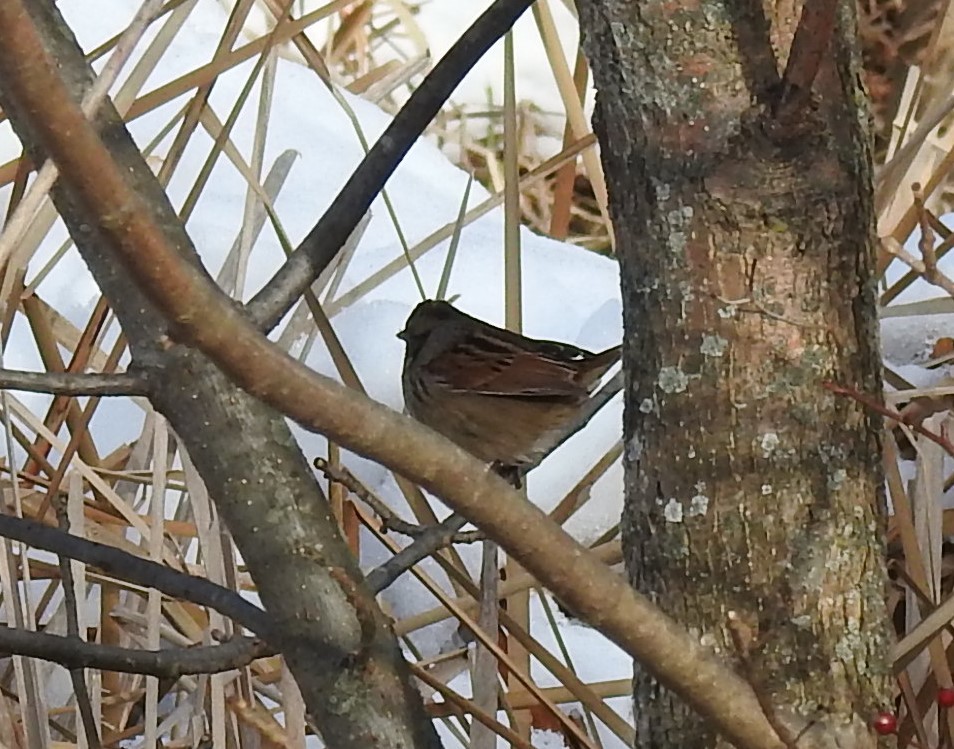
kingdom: Animalia
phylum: Chordata
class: Aves
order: Passeriformes
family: Passerellidae
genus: Melospiza
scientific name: Melospiza georgiana
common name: Swamp sparrow
